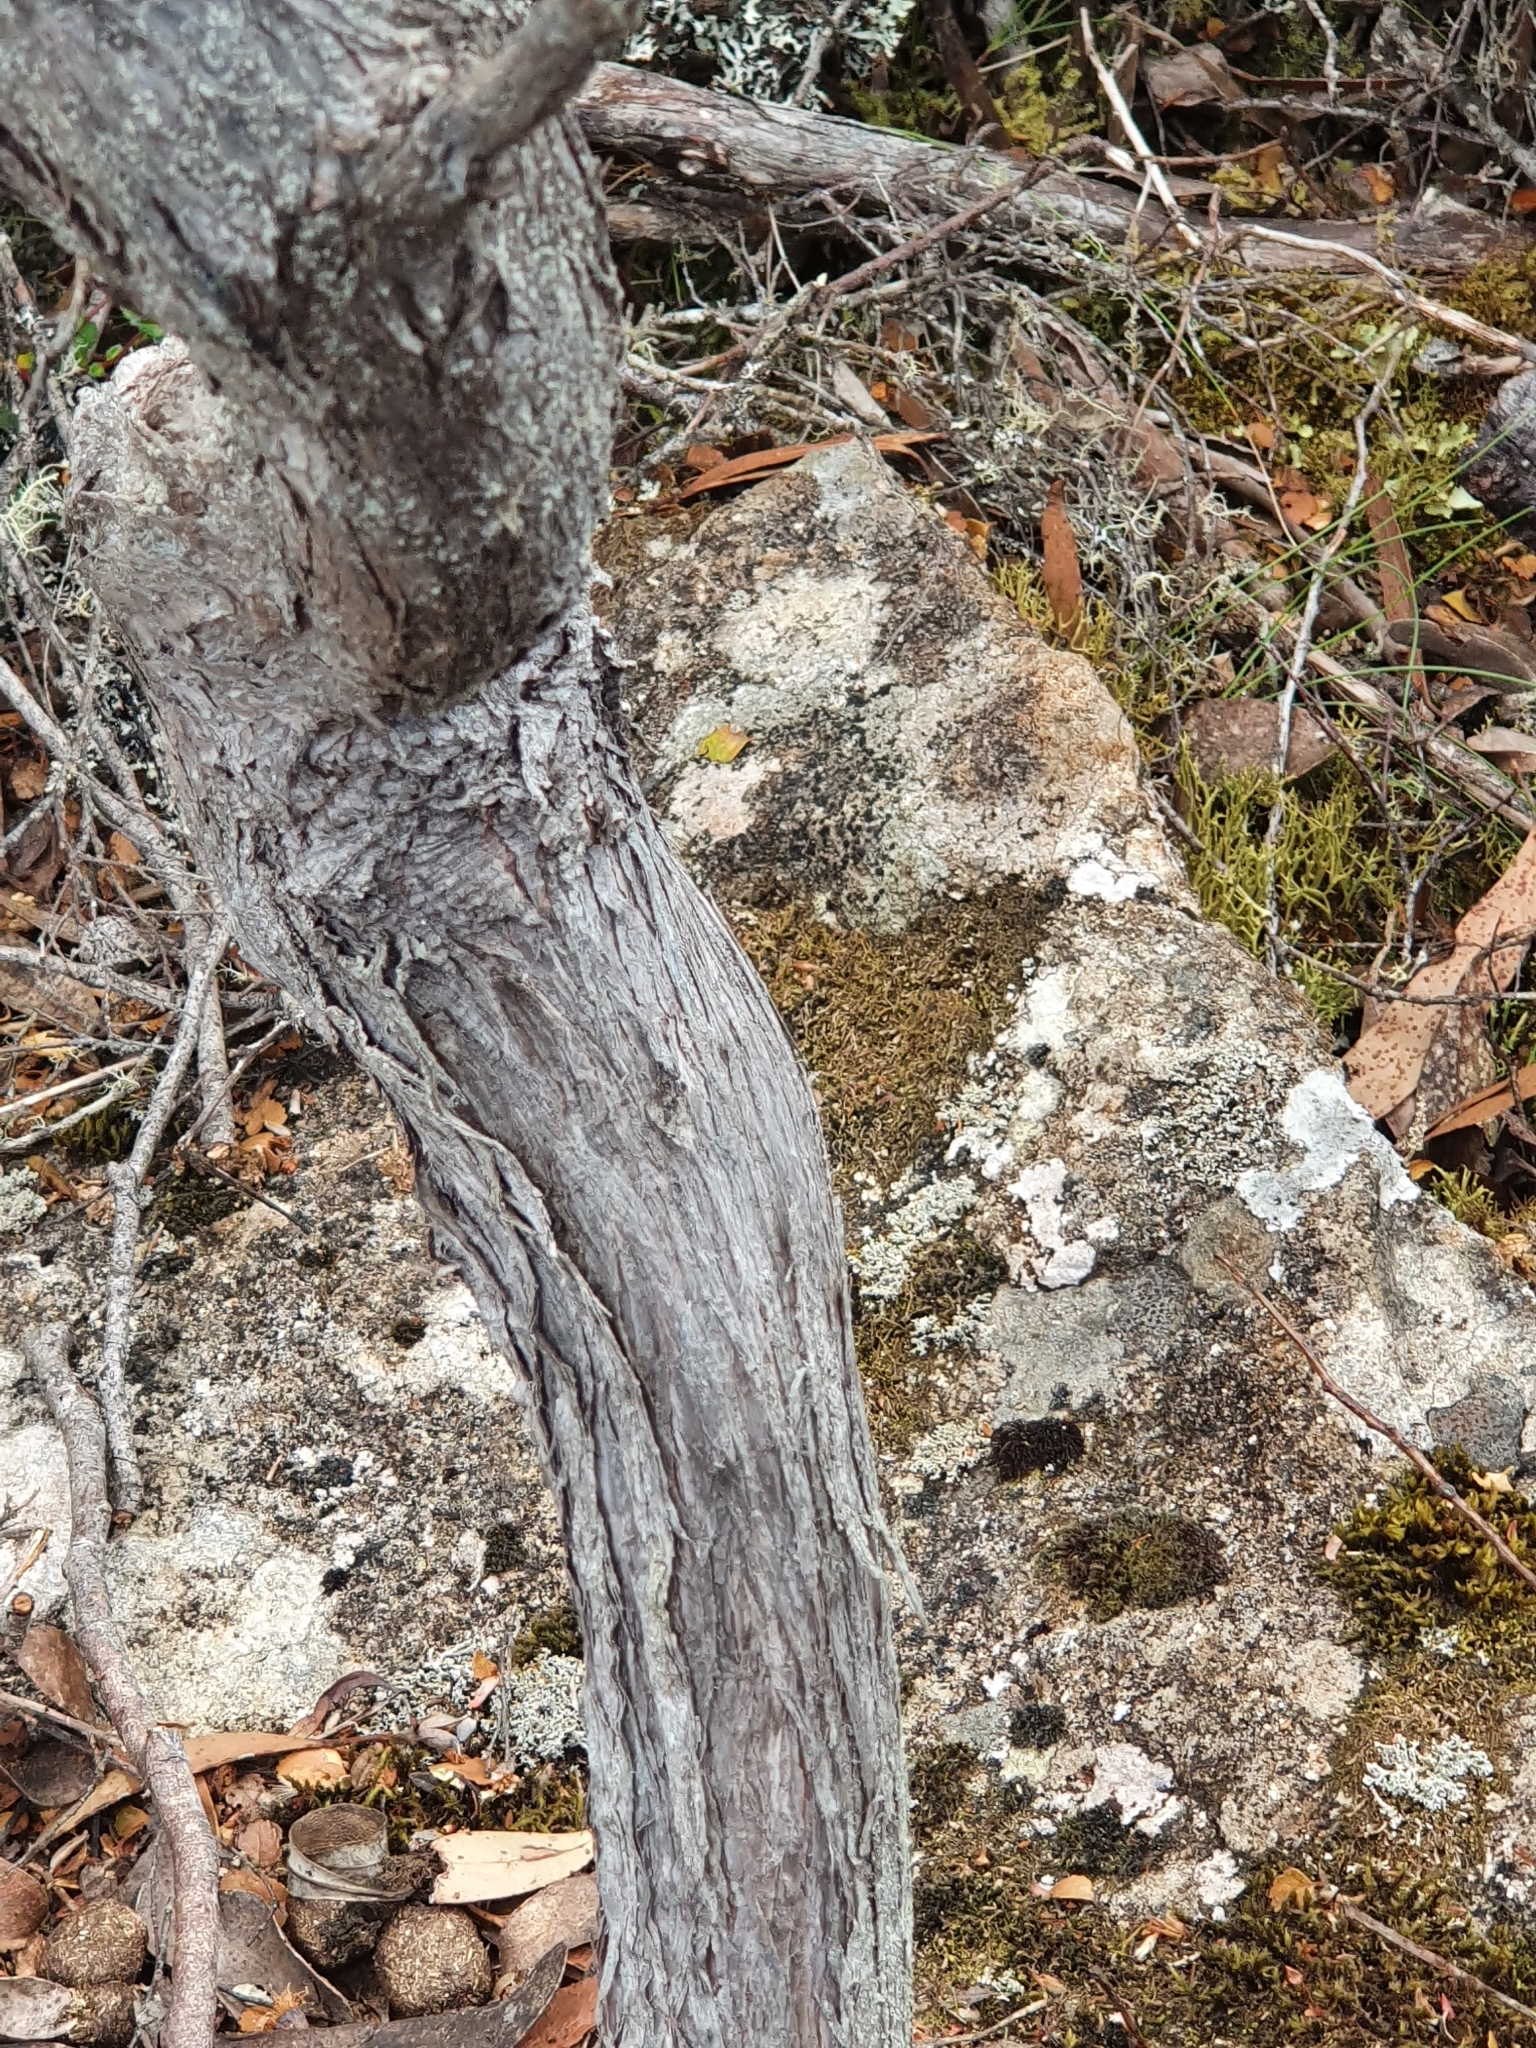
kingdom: Plantae
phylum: Tracheophyta
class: Magnoliopsida
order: Myrtales
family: Myrtaceae
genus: Leptospermum
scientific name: Leptospermum lanigerum
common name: Woolly tea-tree
